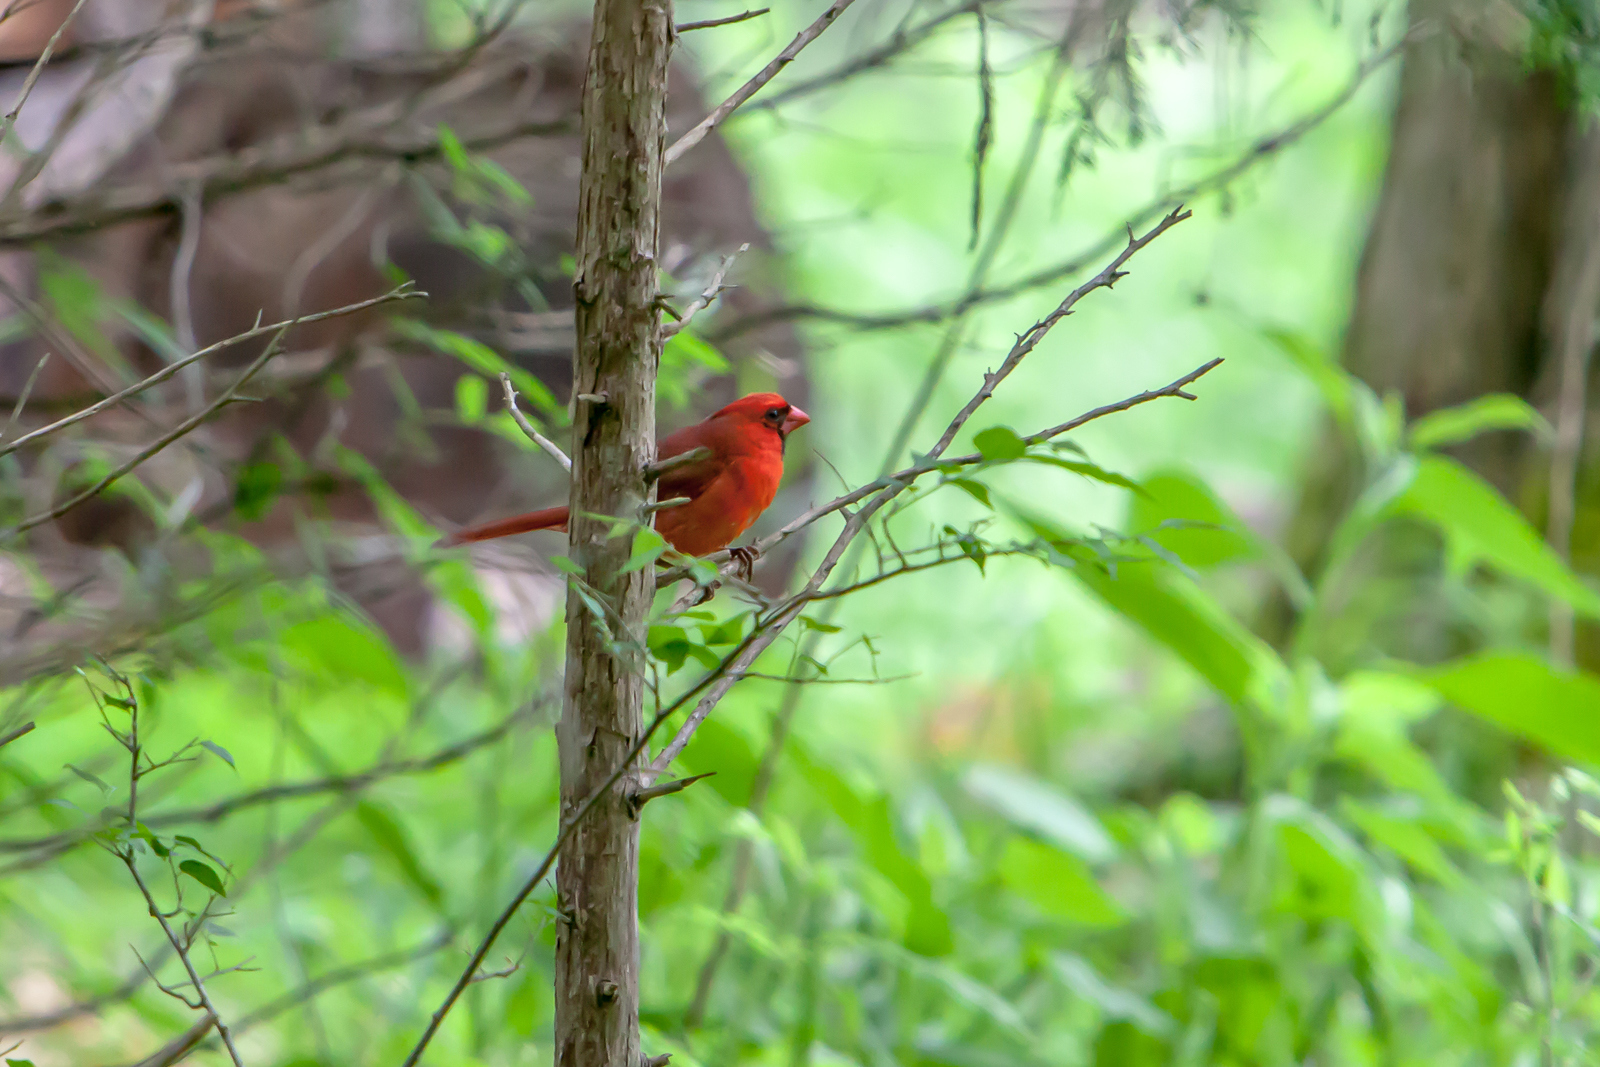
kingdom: Animalia
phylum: Chordata
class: Aves
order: Passeriformes
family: Cardinalidae
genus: Cardinalis
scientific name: Cardinalis cardinalis
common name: Northern cardinal
